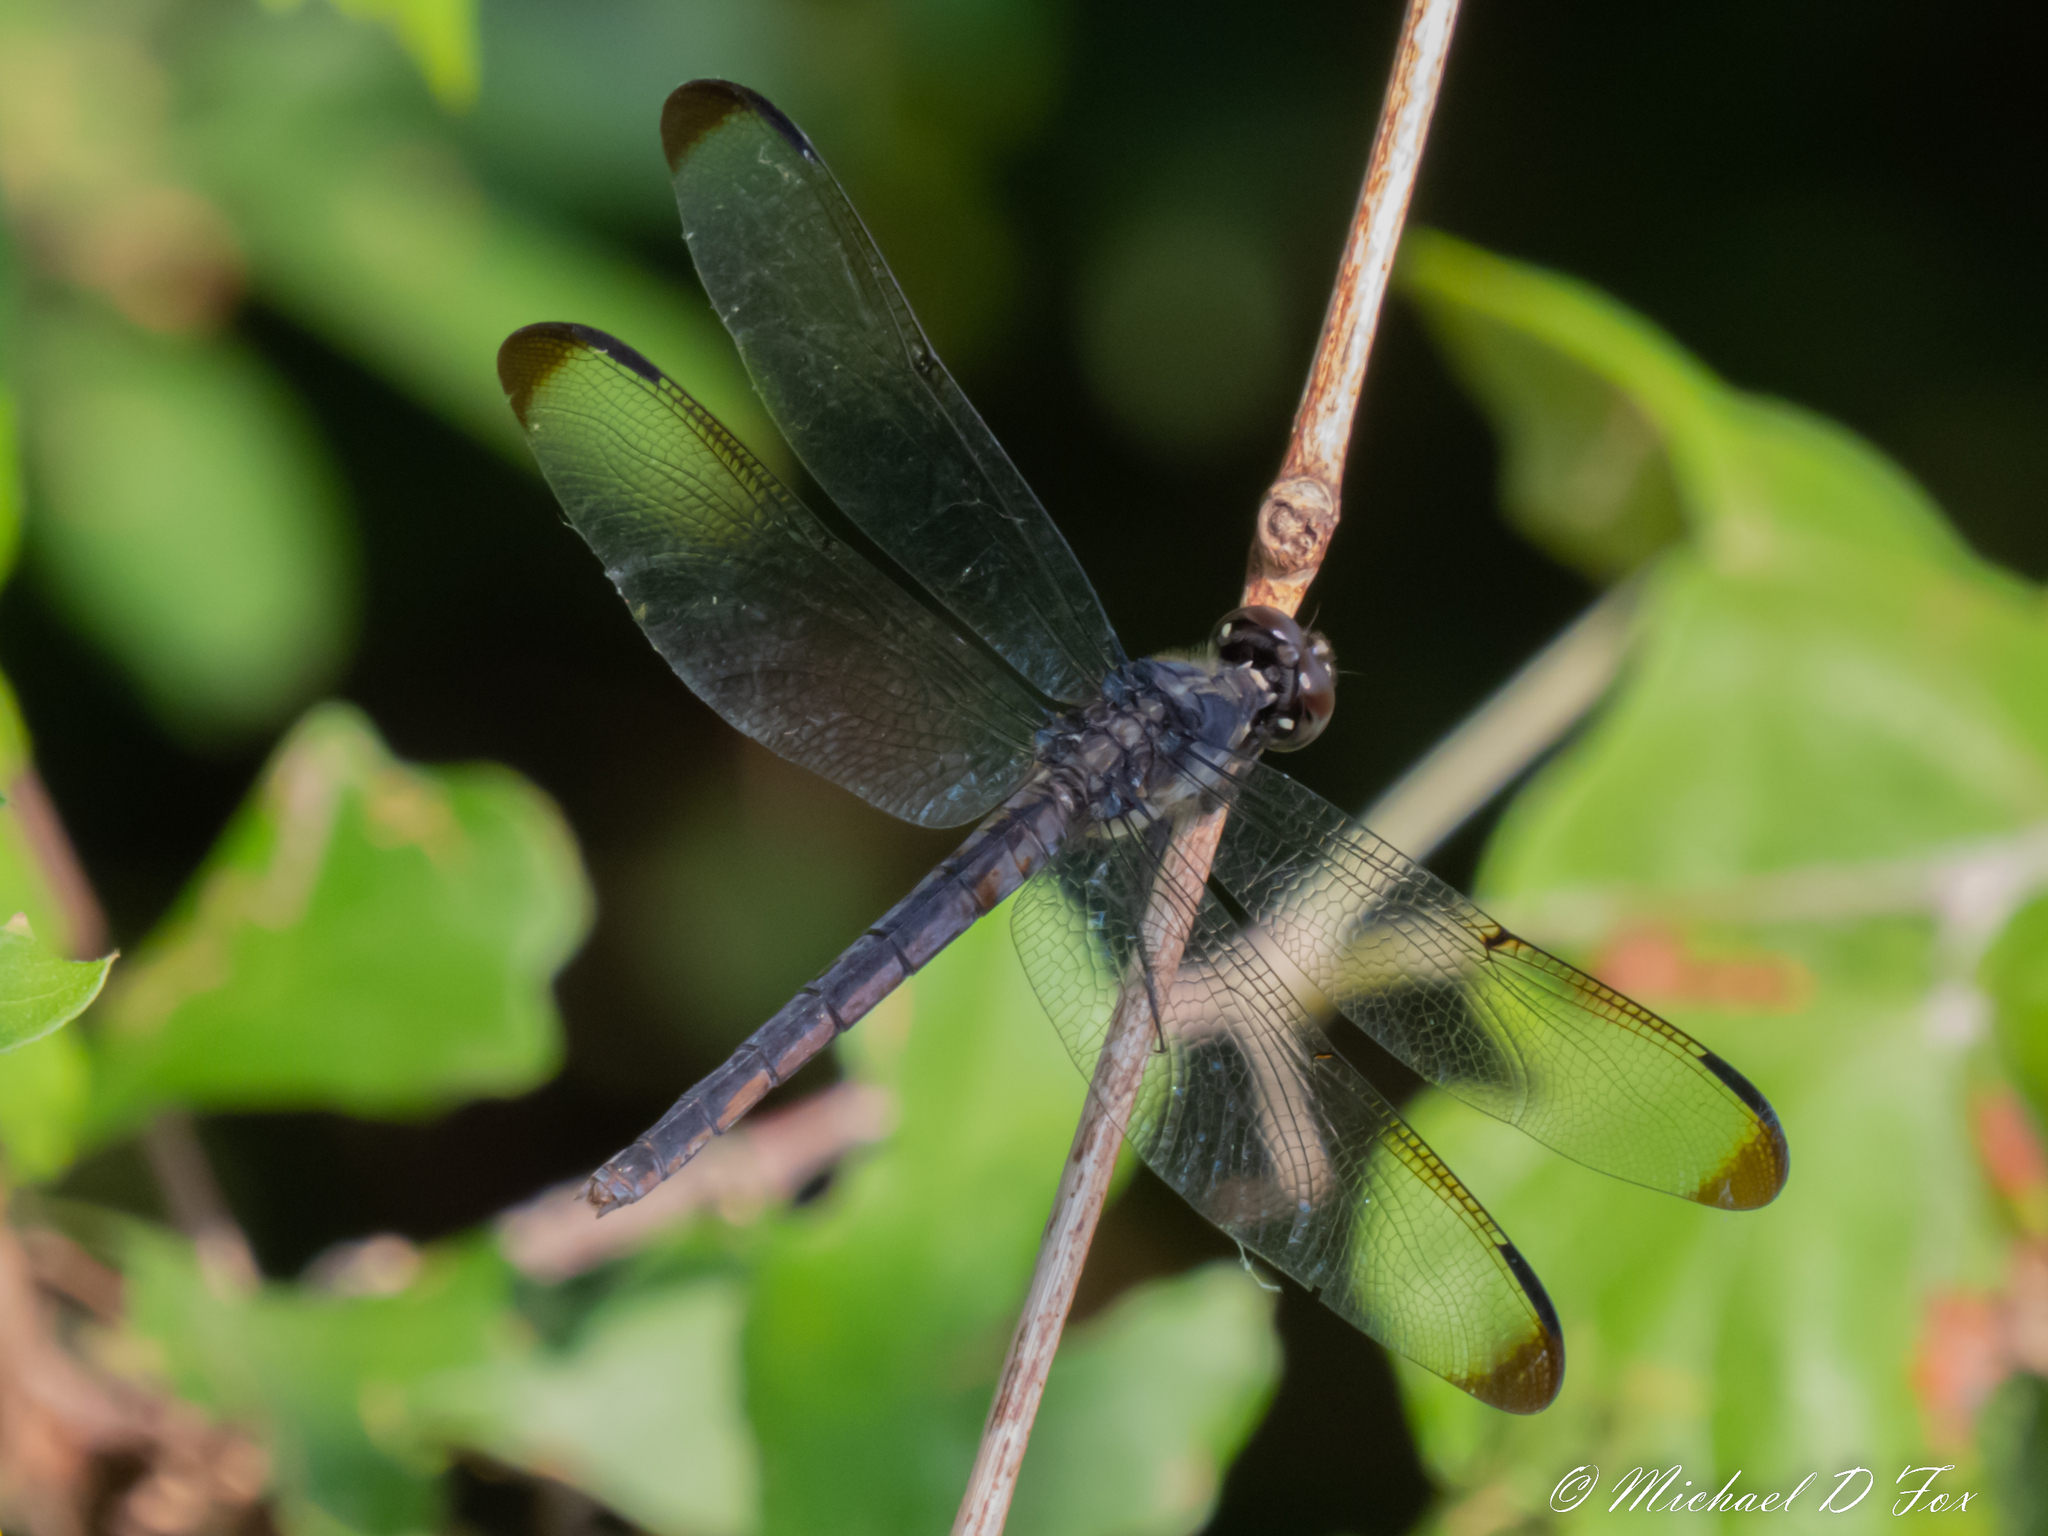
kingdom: Animalia
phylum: Arthropoda
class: Insecta
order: Odonata
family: Libellulidae
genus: Libellula
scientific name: Libellula incesta
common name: Slaty skimmer
